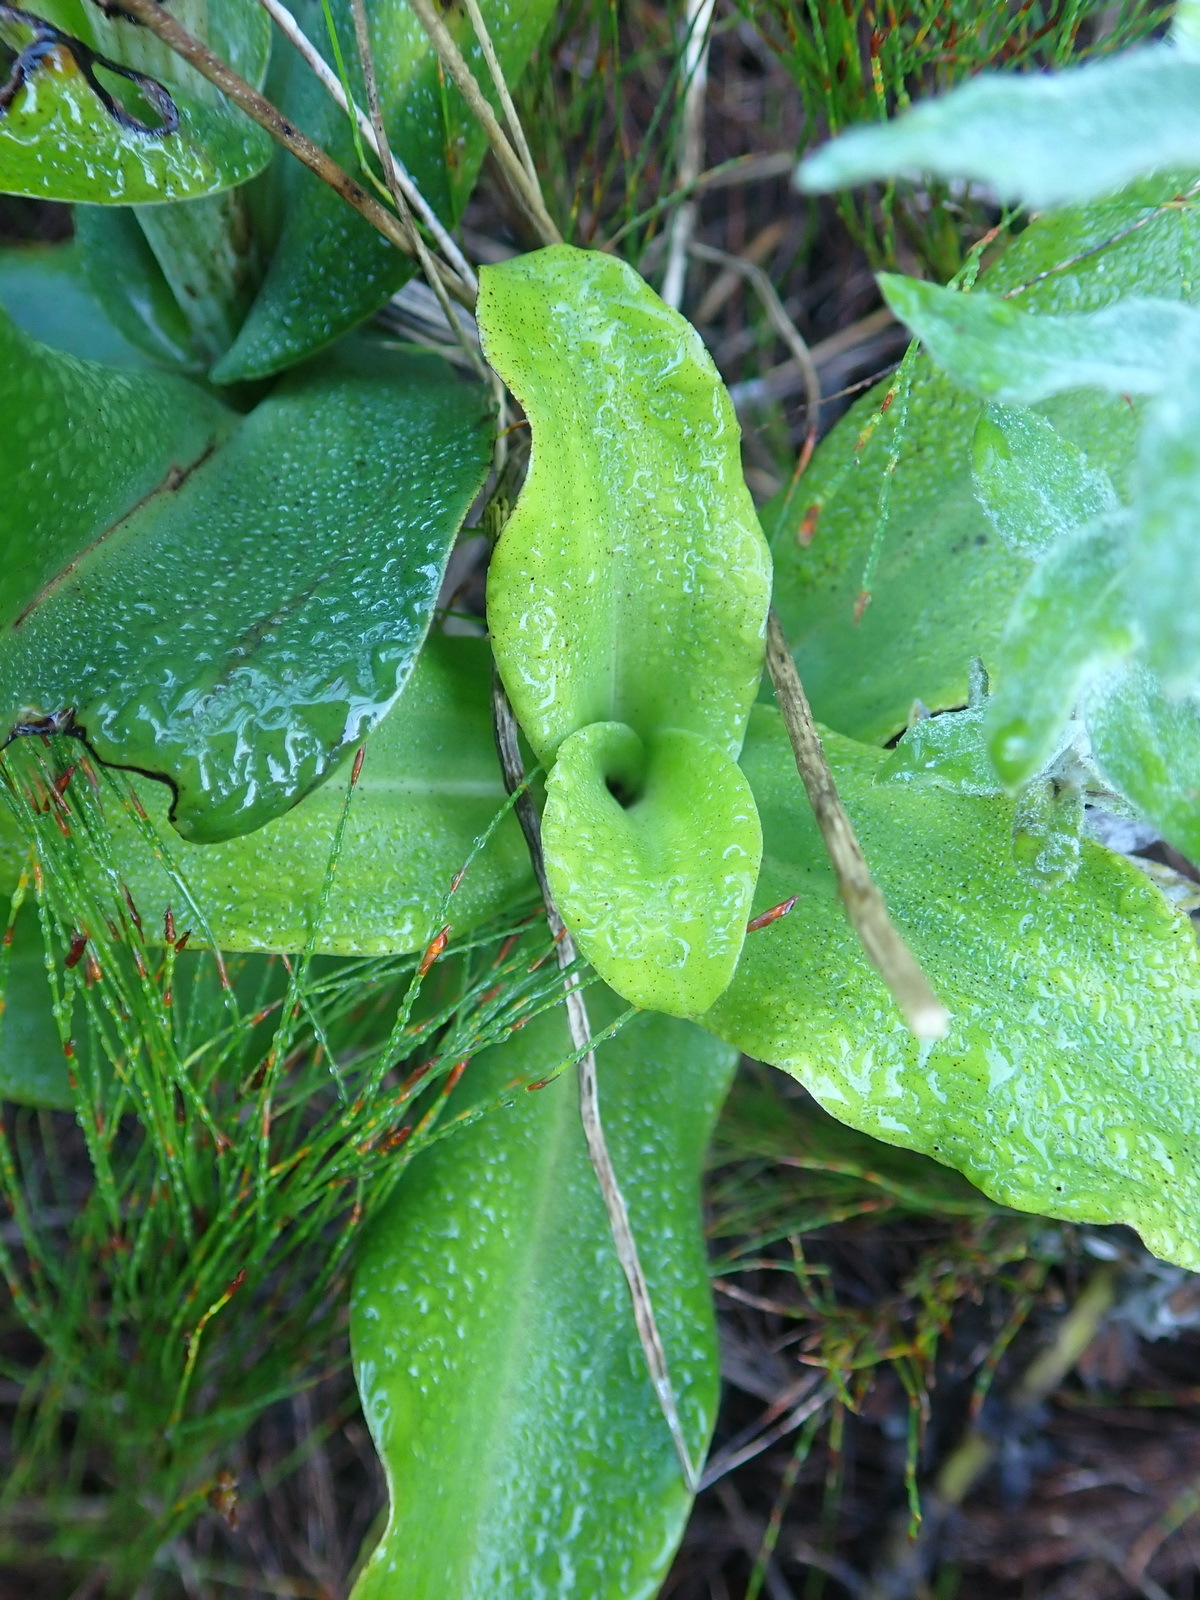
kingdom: Plantae
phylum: Tracheophyta
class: Liliopsida
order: Asparagales
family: Orchidaceae
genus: Bonatea
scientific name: Bonatea speciosa
